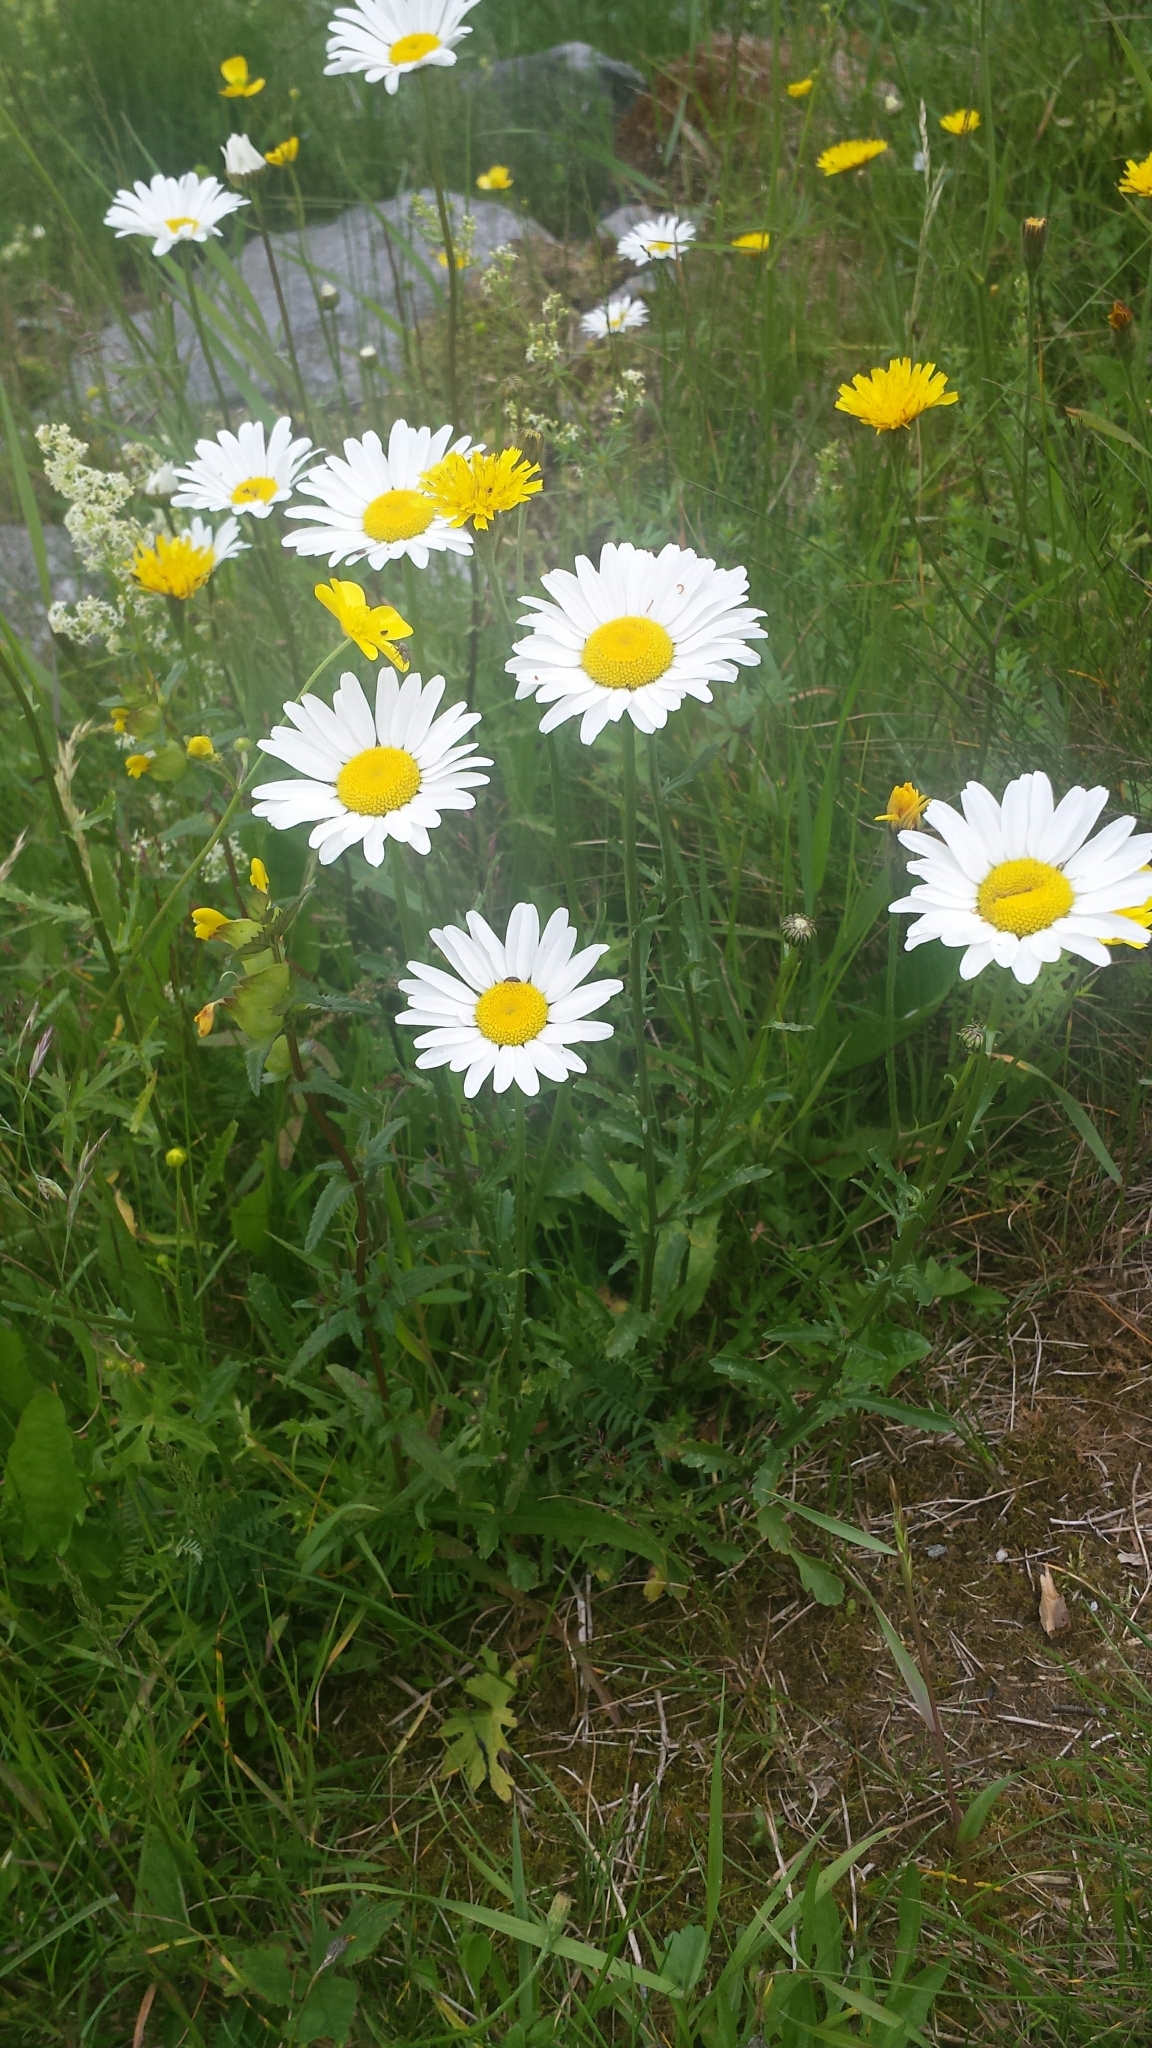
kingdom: Plantae
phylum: Tracheophyta
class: Magnoliopsida
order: Asterales
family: Asteraceae
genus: Leucanthemum
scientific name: Leucanthemum vulgare
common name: Oxeye daisy
